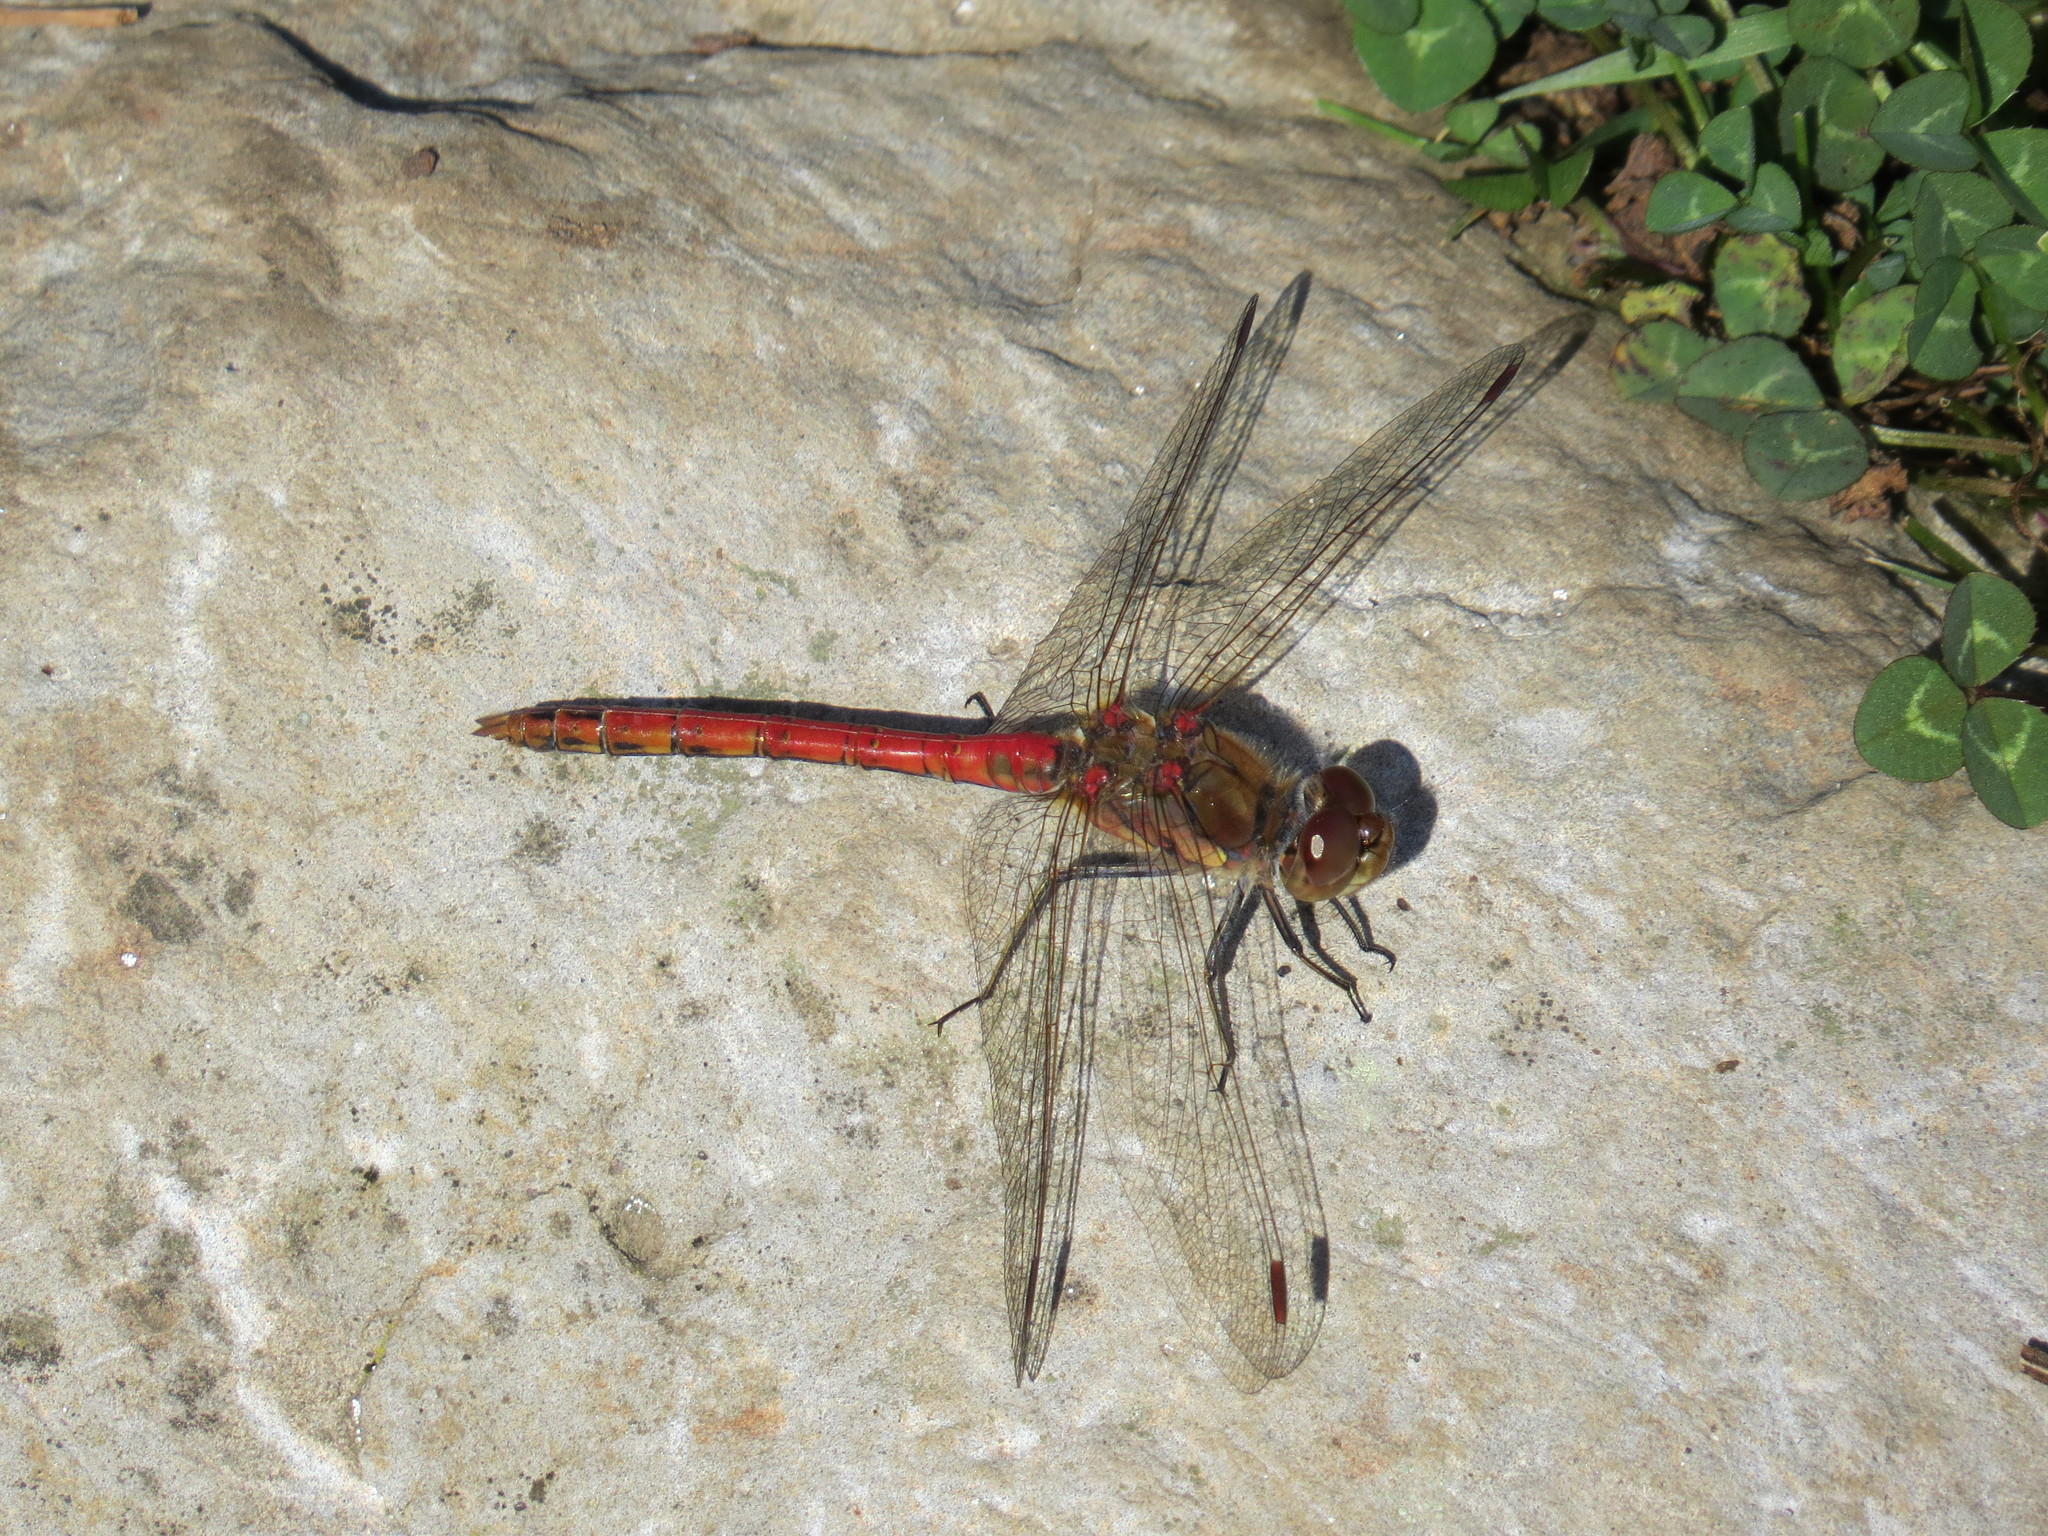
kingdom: Animalia
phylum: Arthropoda
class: Insecta
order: Odonata
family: Libellulidae
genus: Sympetrum
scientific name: Sympetrum striolatum
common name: Common darter
